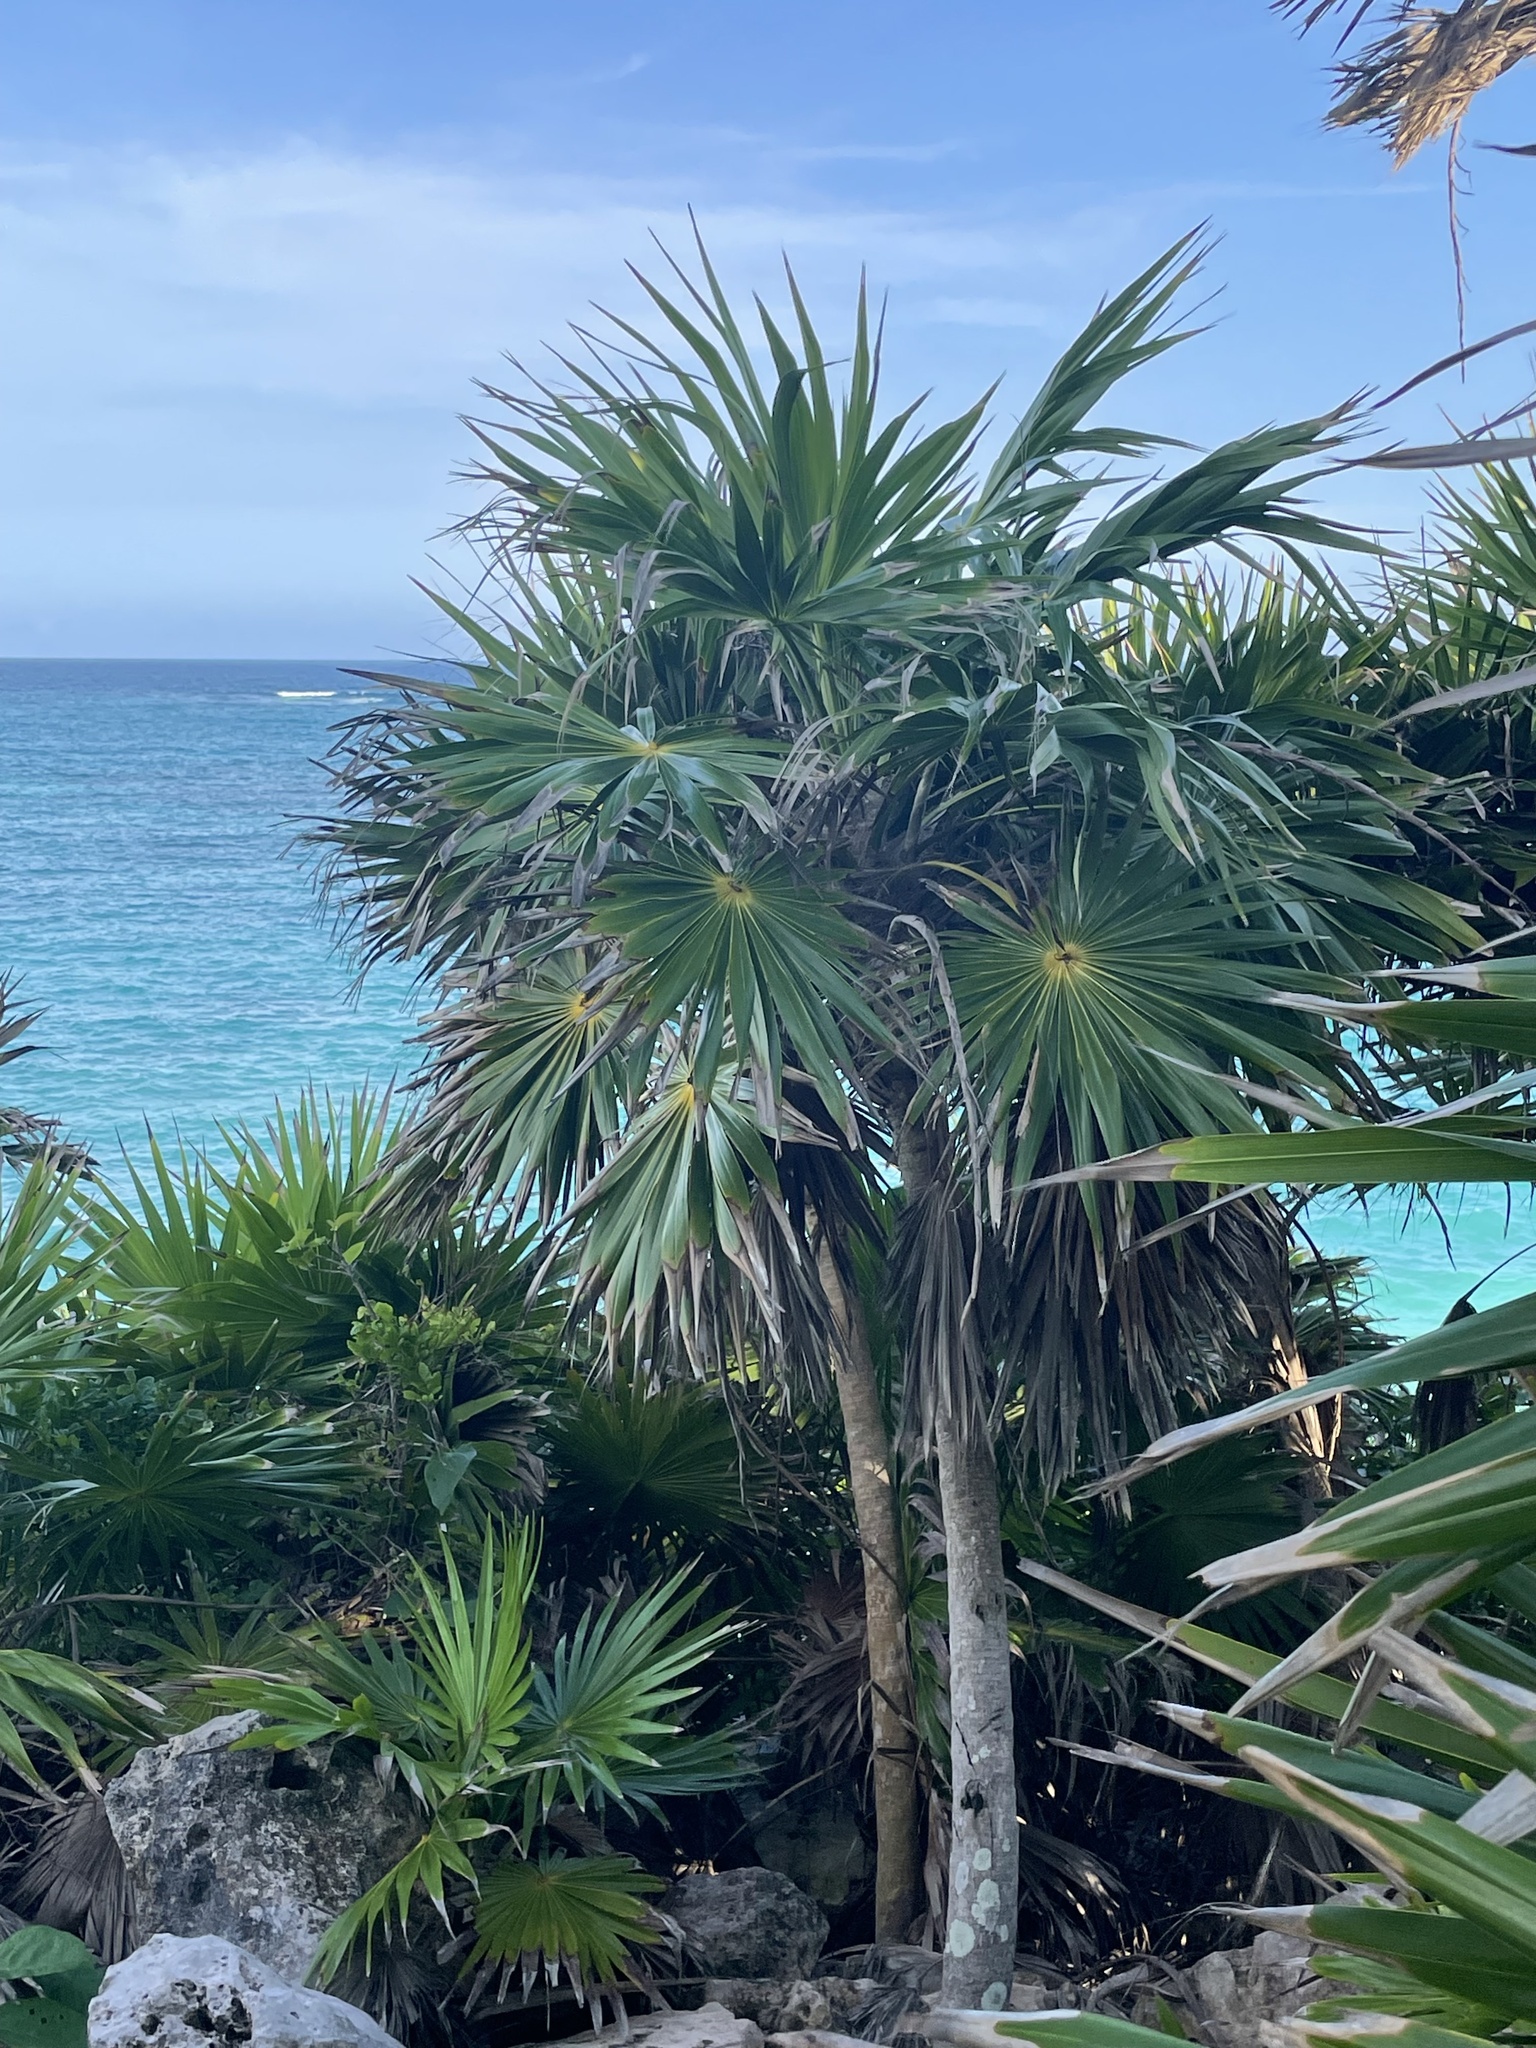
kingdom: Plantae
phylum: Tracheophyta
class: Liliopsida
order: Arecales
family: Arecaceae
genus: Thrinax
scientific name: Thrinax radiata
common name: Florida thatch
